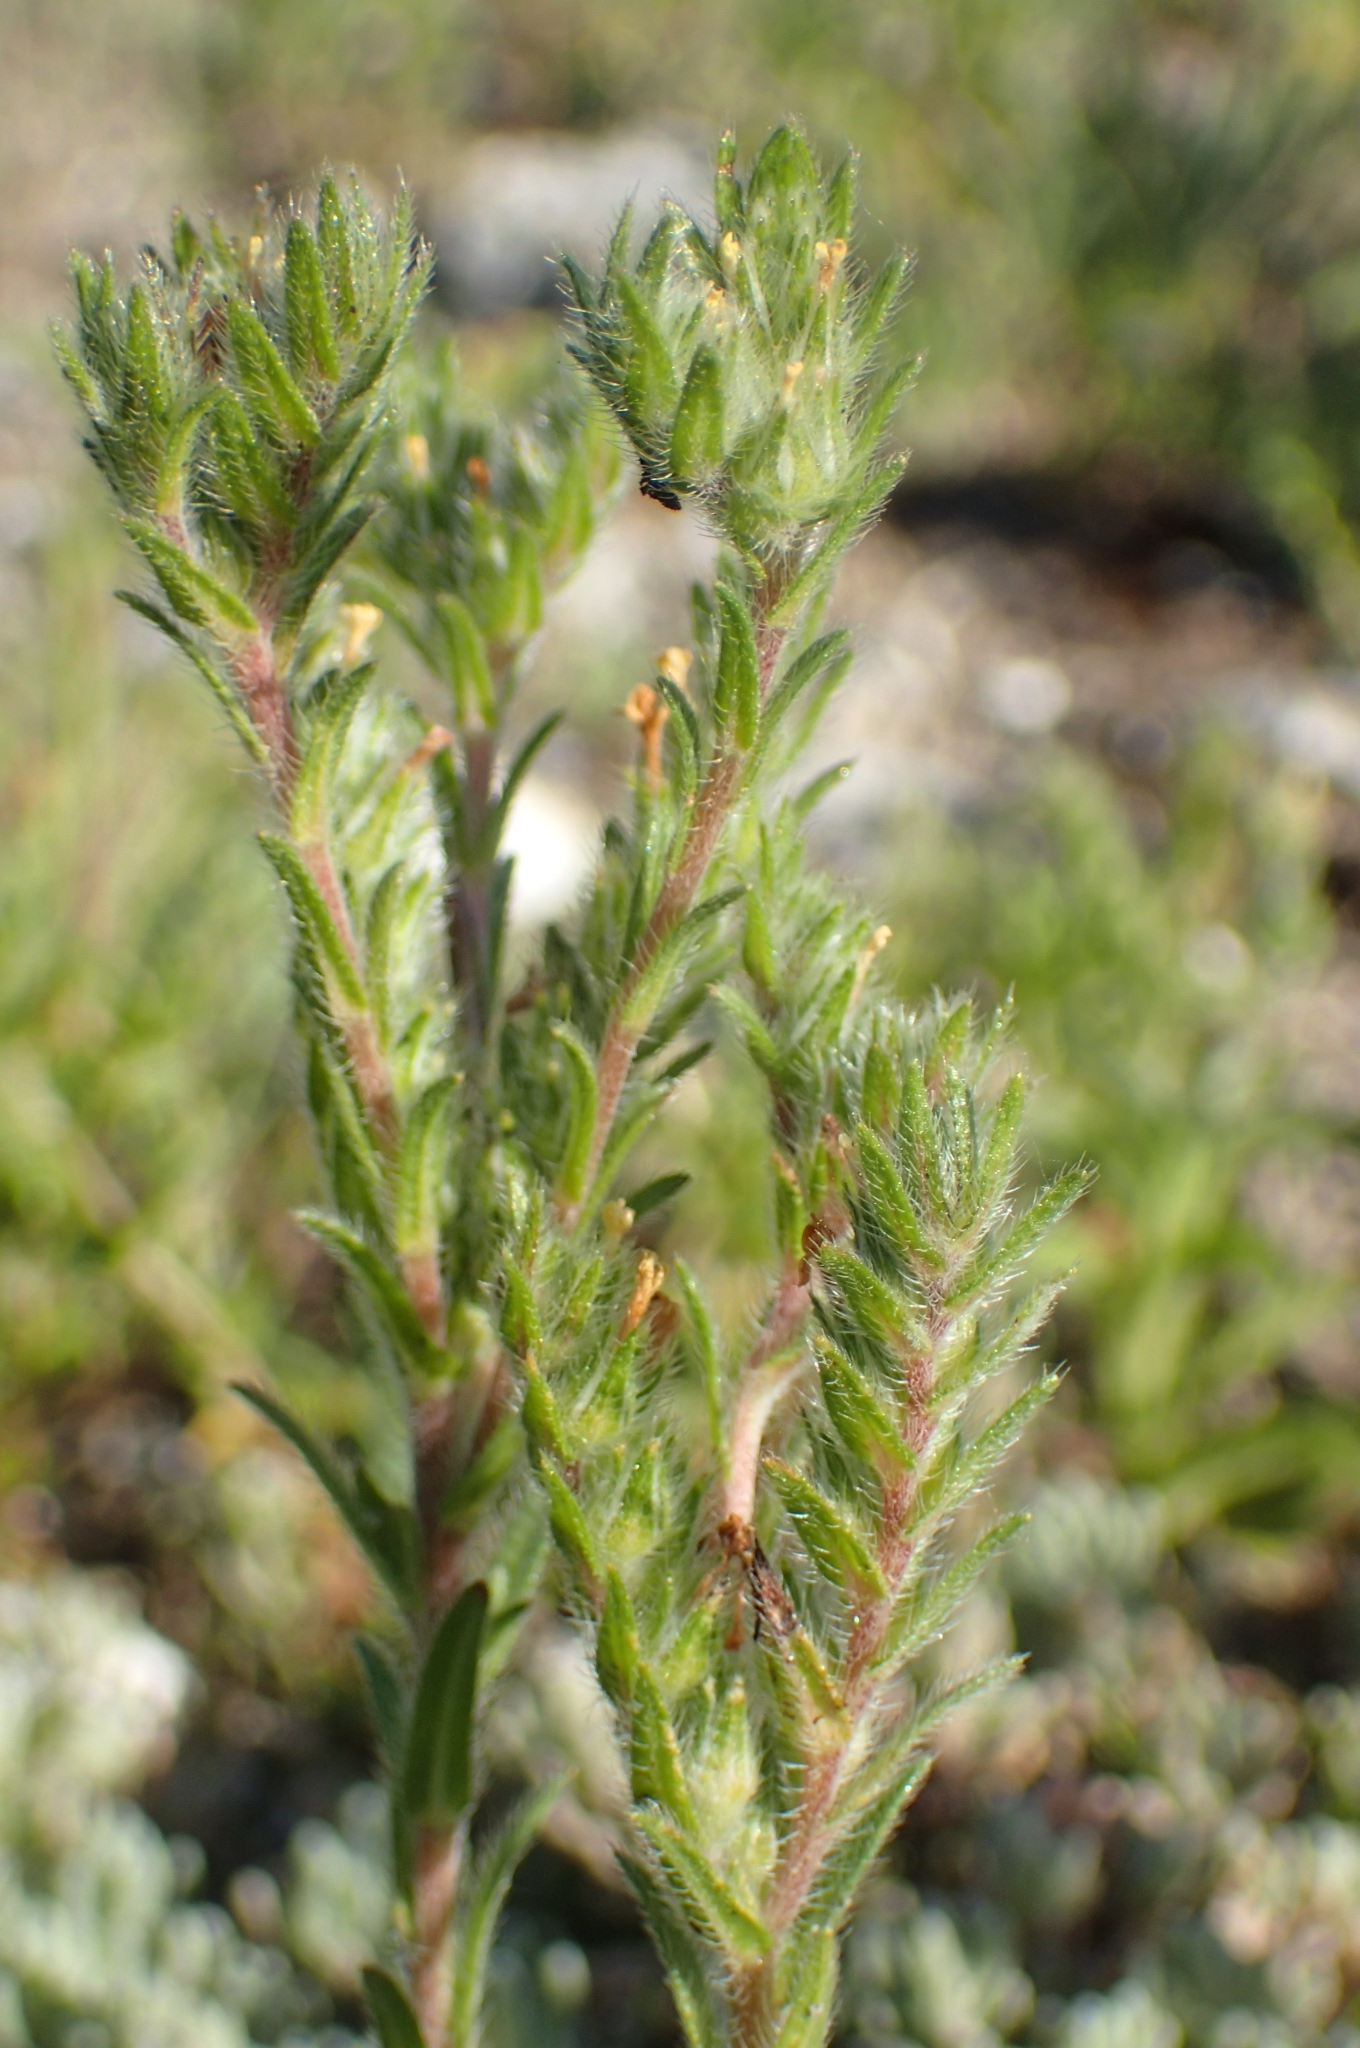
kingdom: Plantae
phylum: Tracheophyta
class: Magnoliopsida
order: Boraginales
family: Boraginaceae
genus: Neatostema
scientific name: Neatostema apulum
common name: Hairy sheepweed
